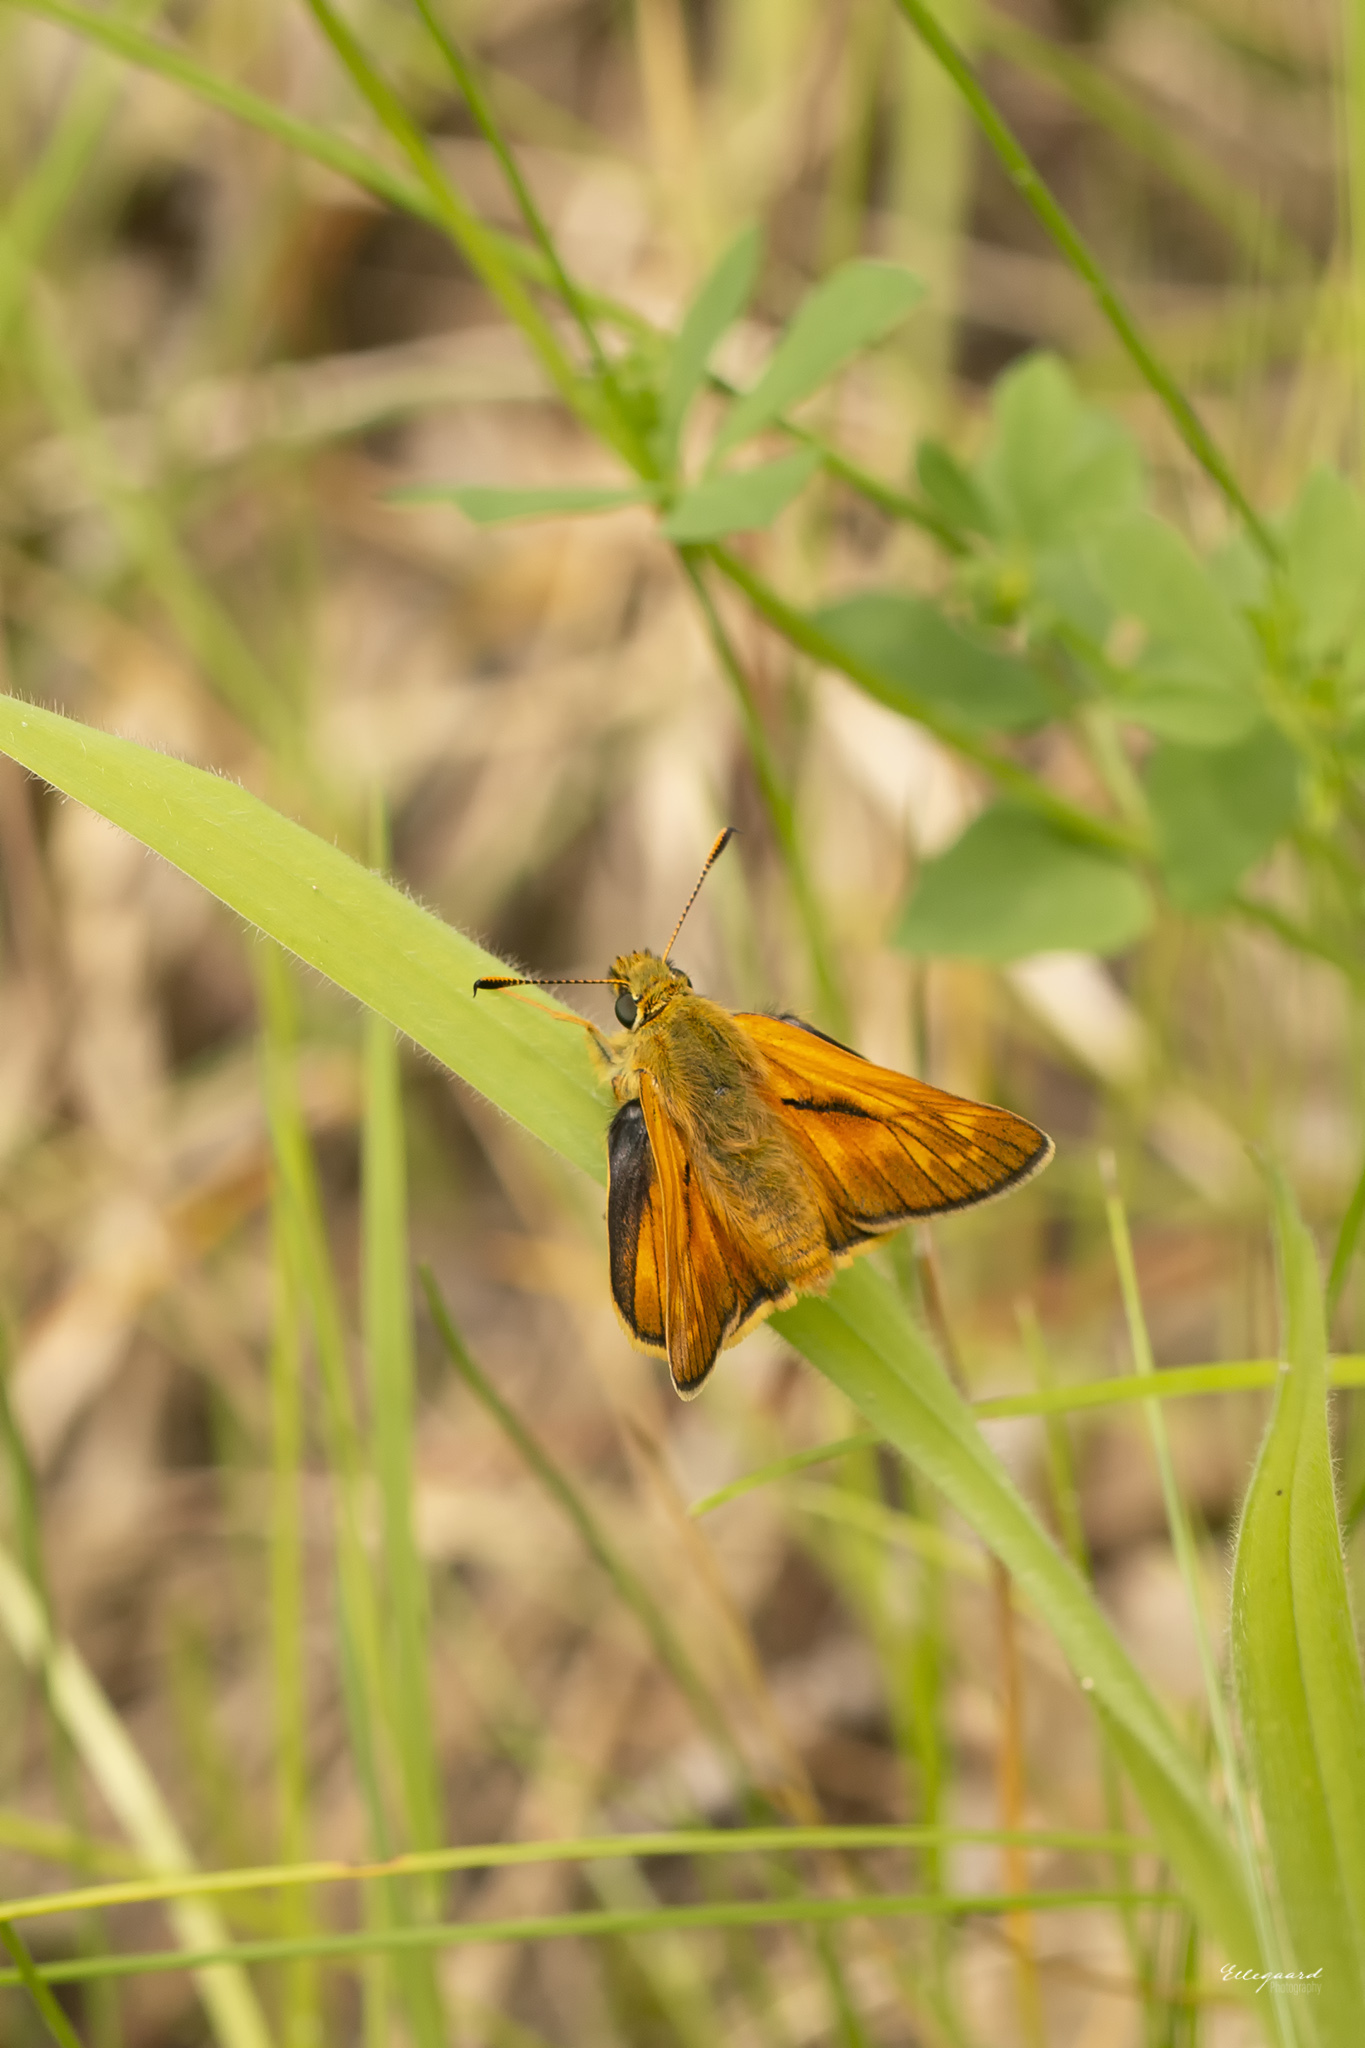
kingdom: Animalia
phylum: Arthropoda
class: Insecta
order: Lepidoptera
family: Hesperiidae
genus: Ochlodes
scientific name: Ochlodes venata
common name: Large skipper
